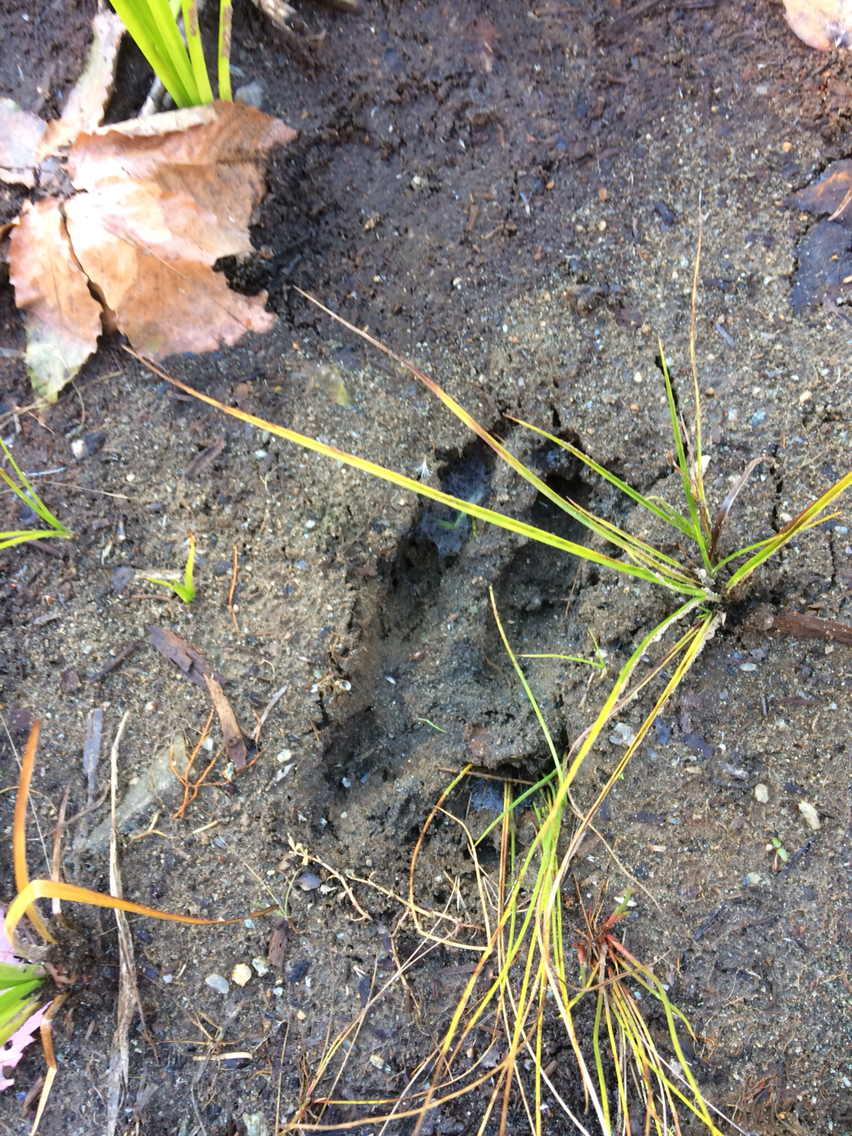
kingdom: Animalia
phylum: Chordata
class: Mammalia
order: Artiodactyla
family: Cervidae
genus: Odocoileus
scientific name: Odocoileus virginianus
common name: White-tailed deer
